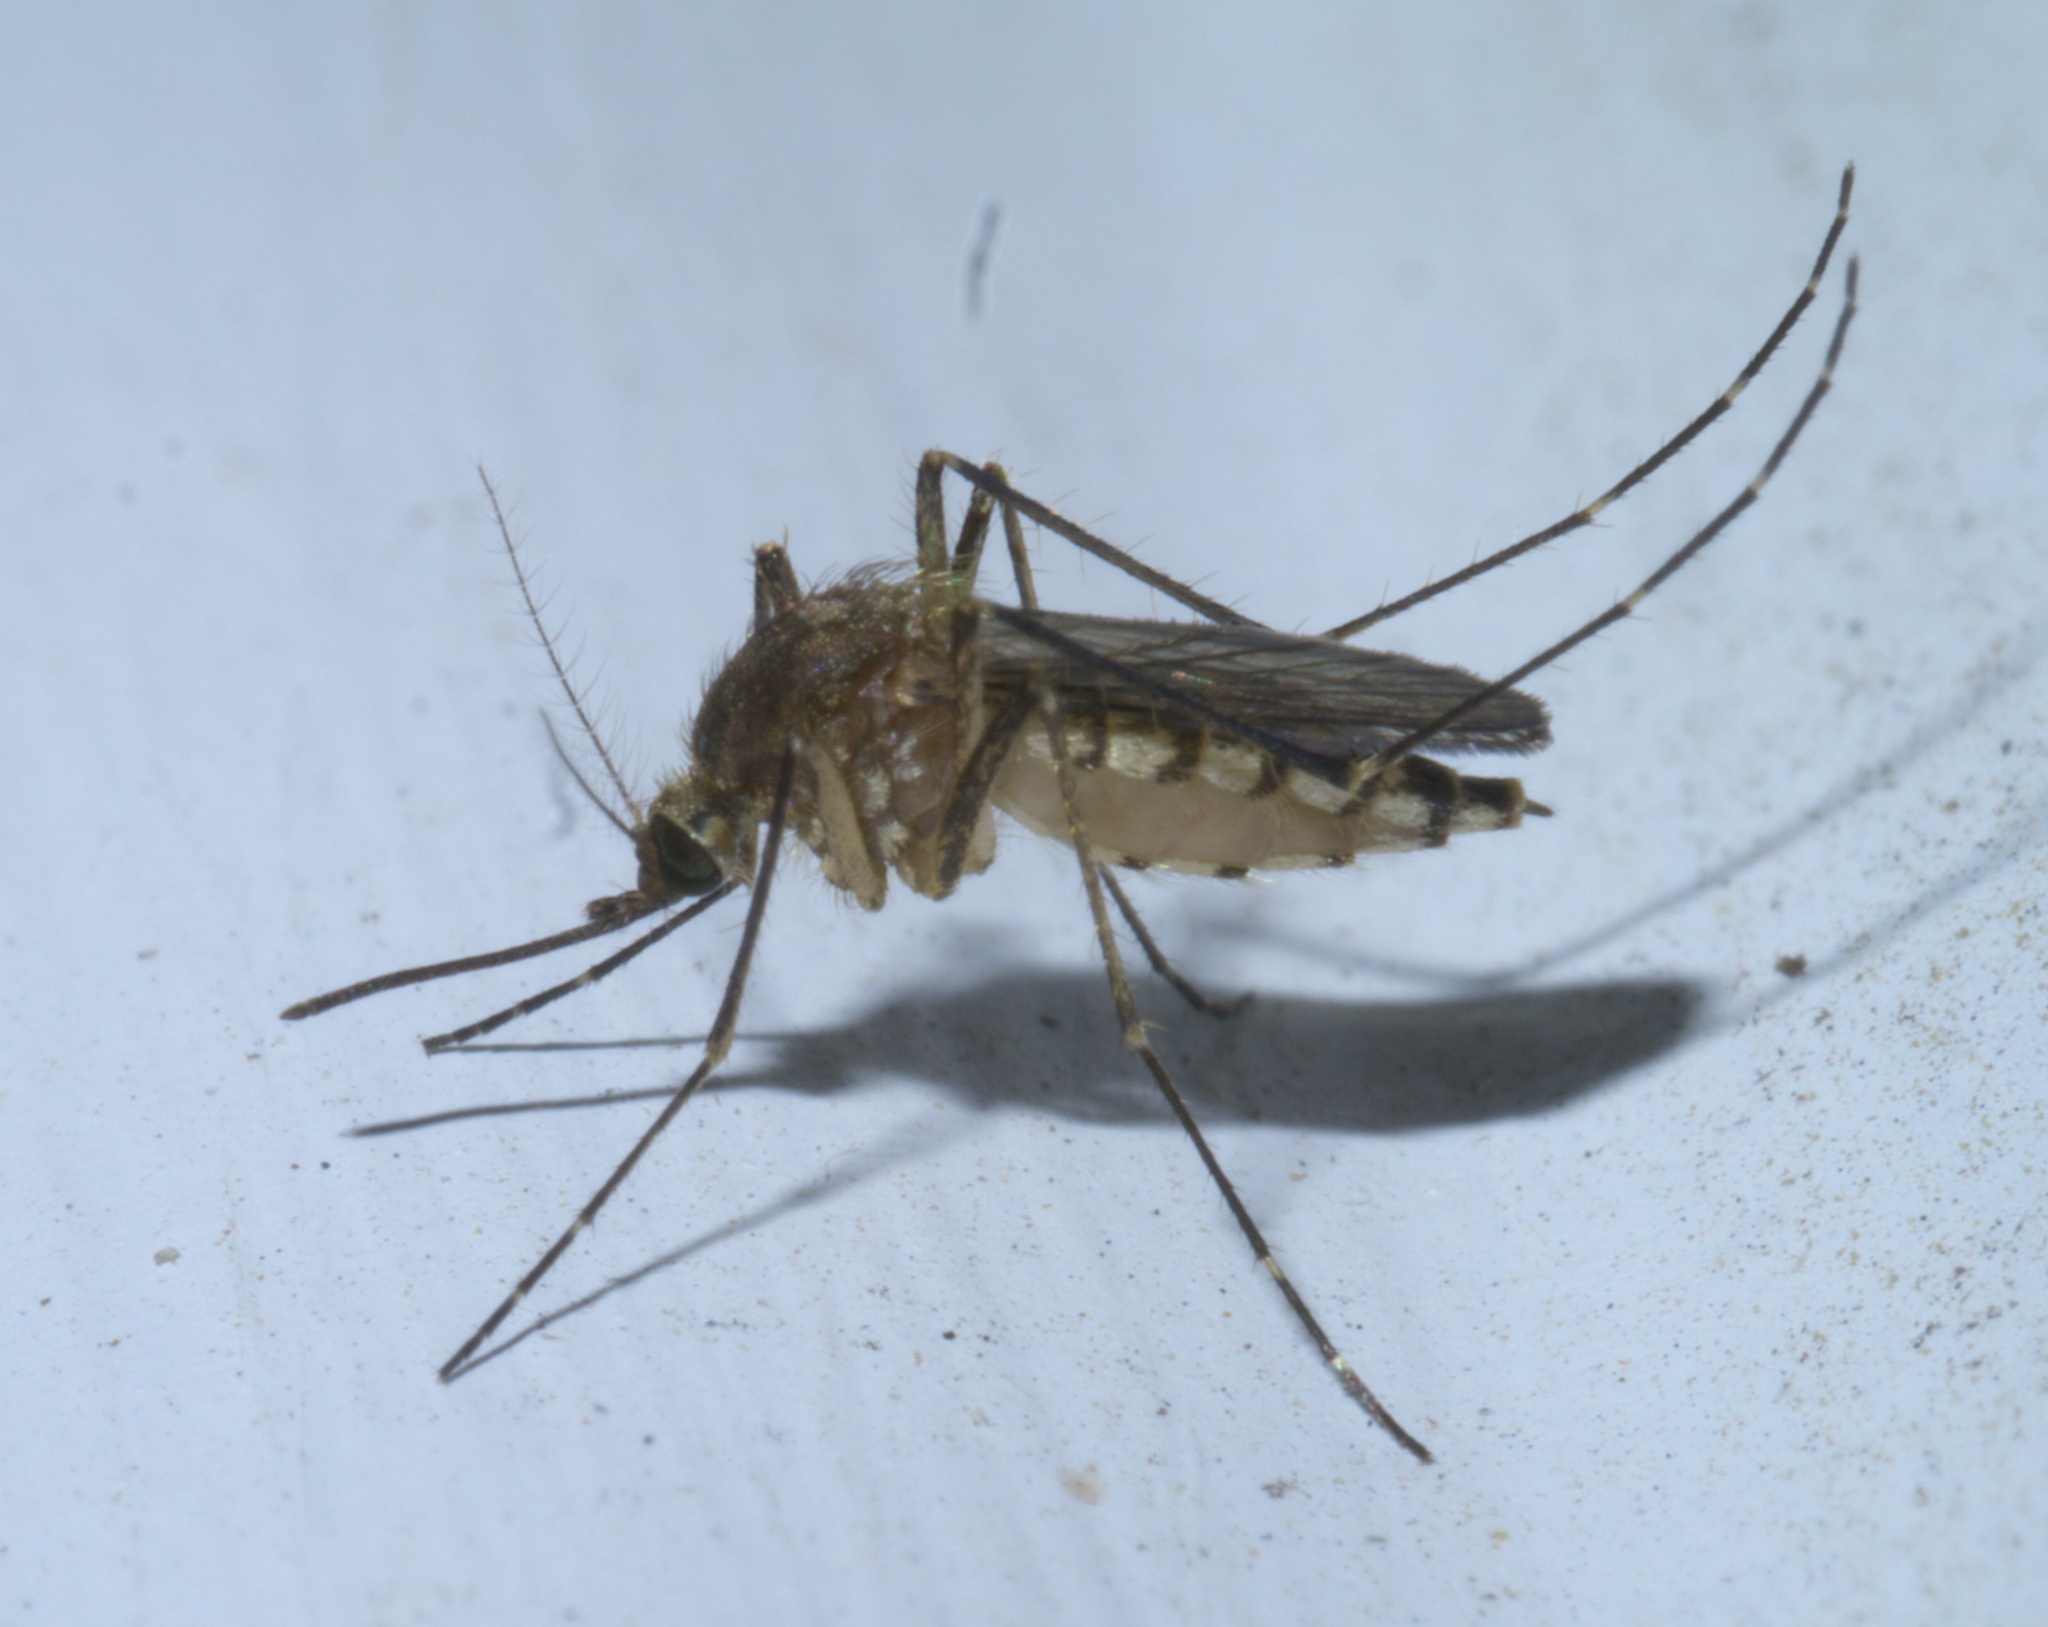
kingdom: Animalia
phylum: Arthropoda
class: Insecta
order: Diptera
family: Culicidae
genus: Aedes
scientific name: Aedes vexans
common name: Inland floodwater mosquito
